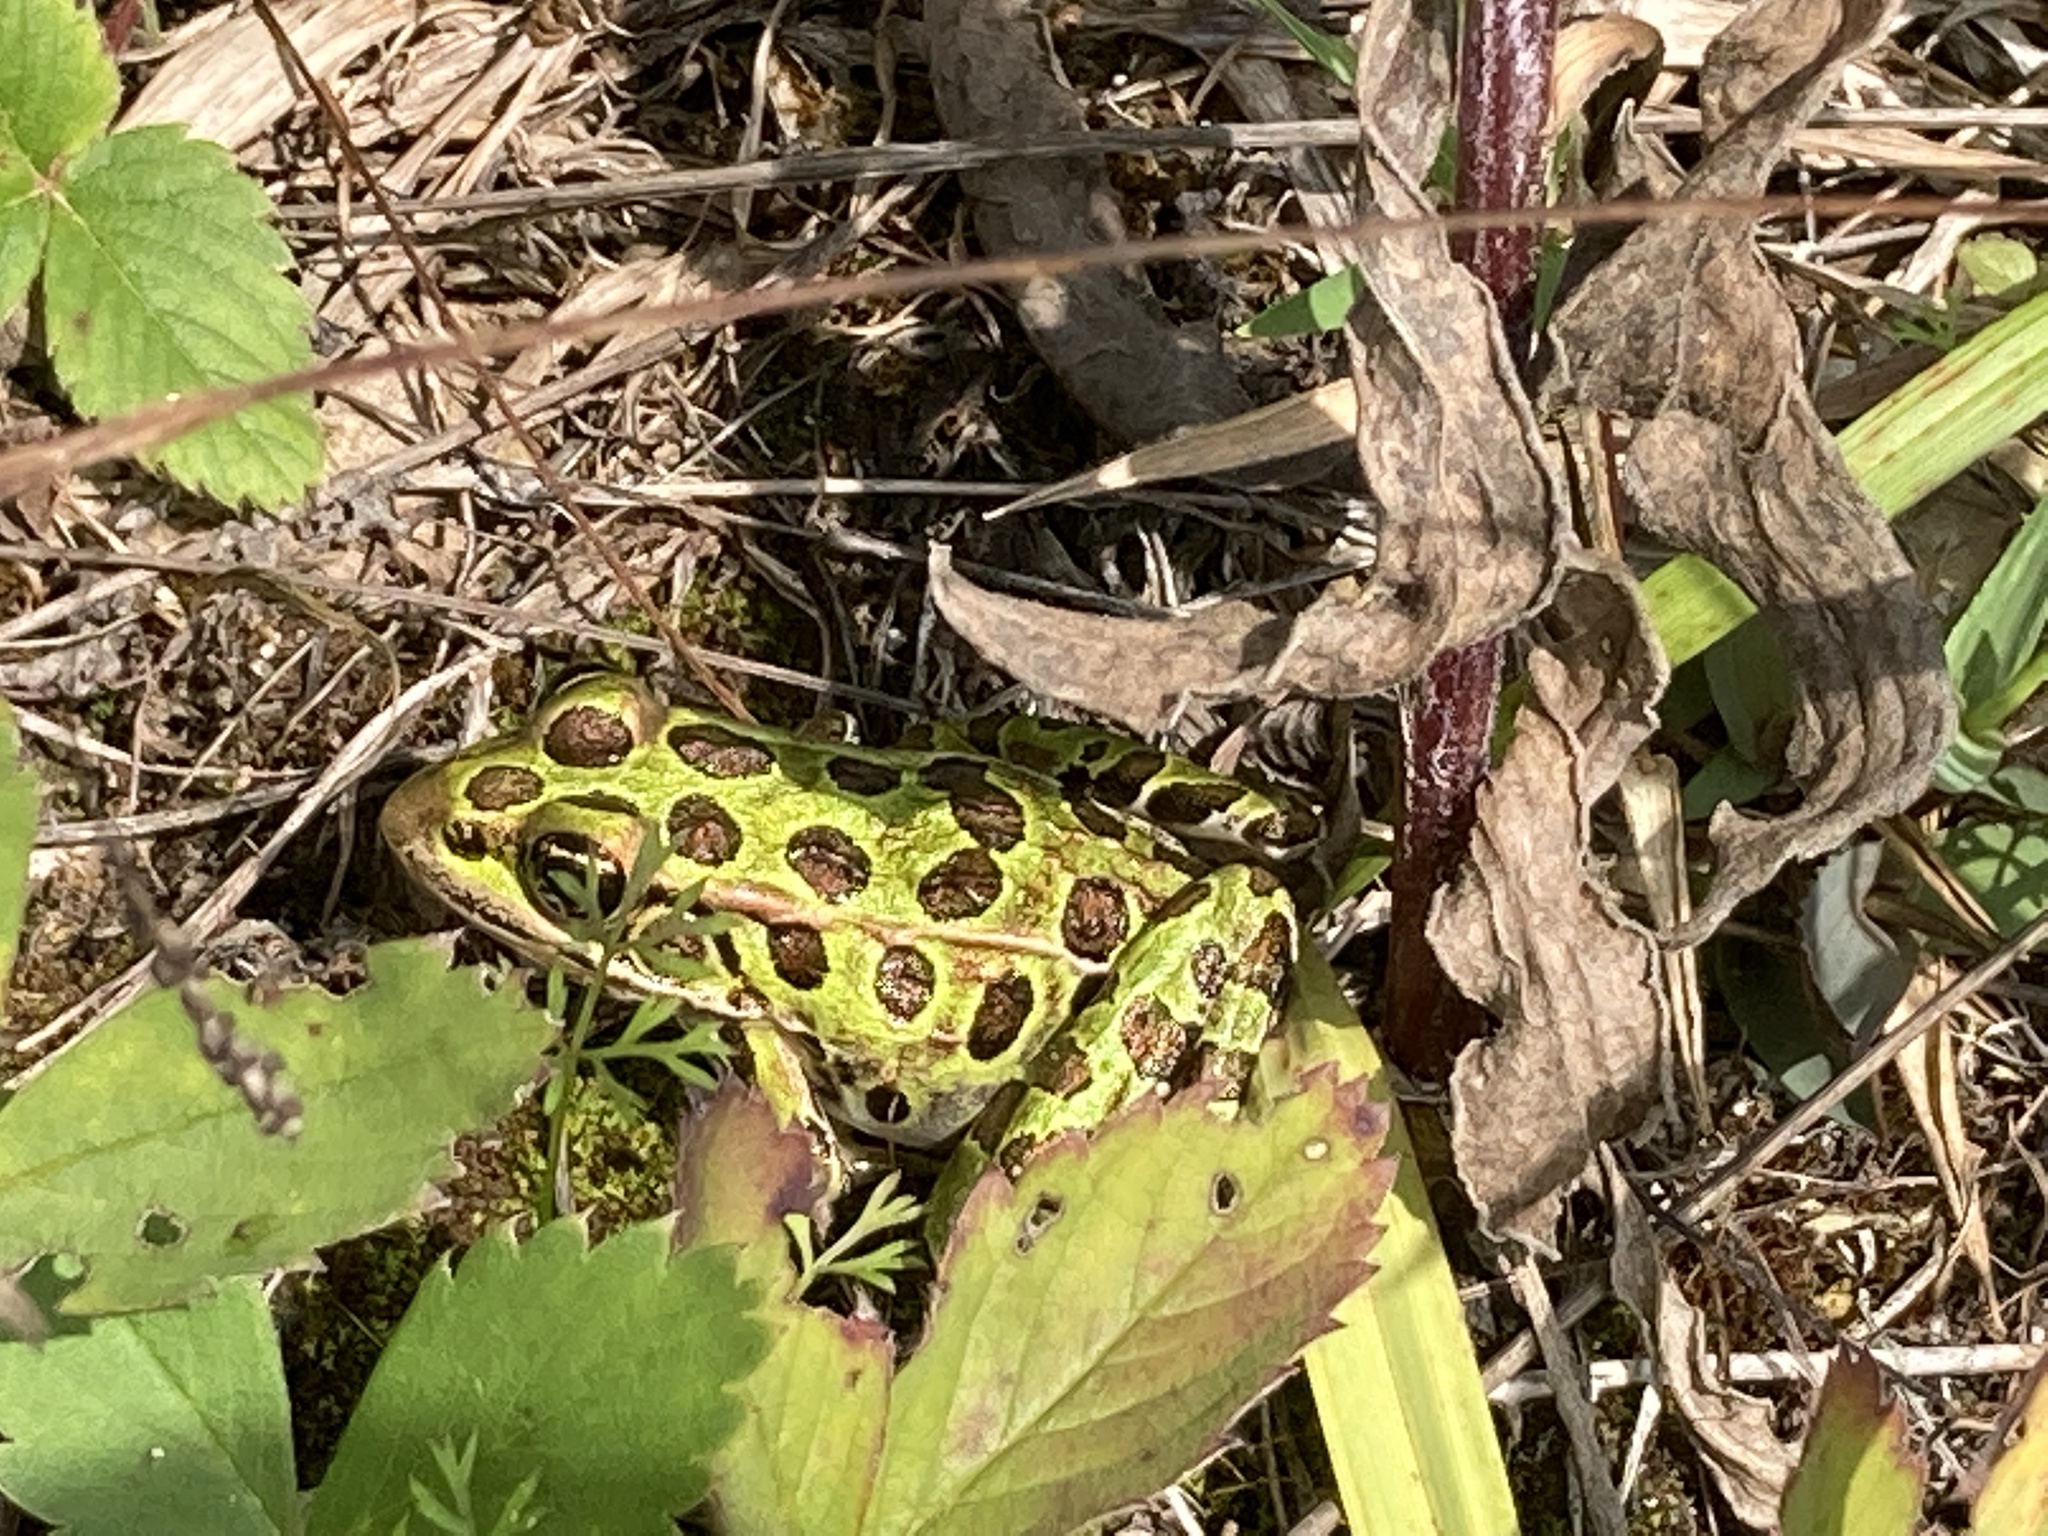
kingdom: Animalia
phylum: Chordata
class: Amphibia
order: Anura
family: Ranidae
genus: Lithobates
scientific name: Lithobates pipiens
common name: Northern leopard frog
